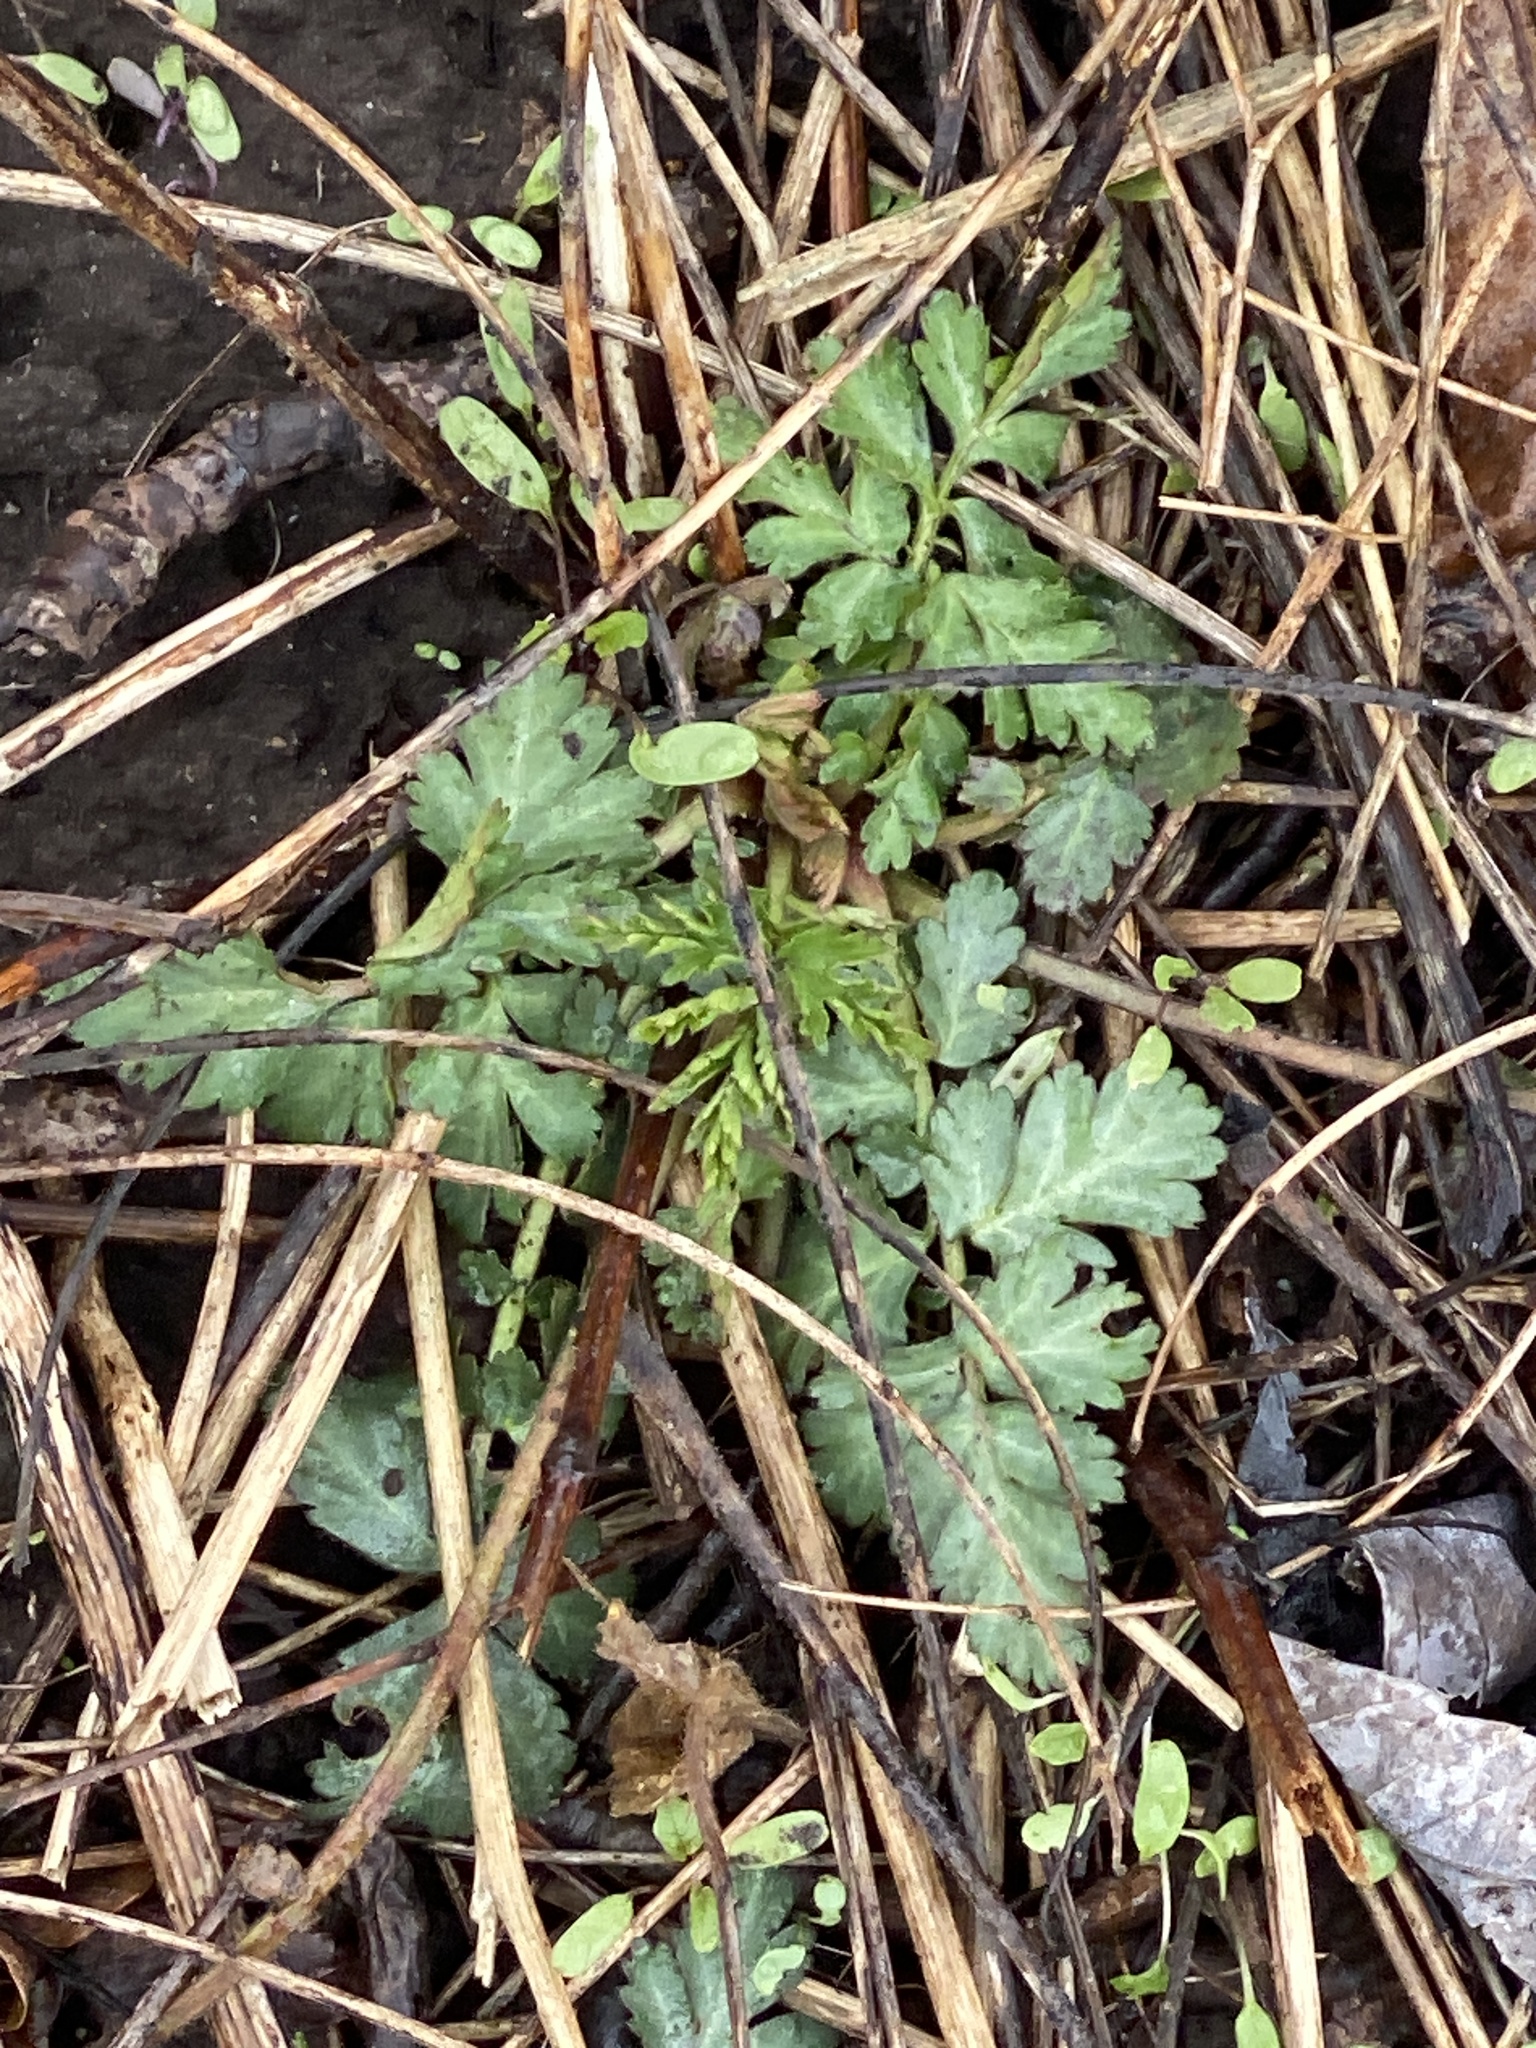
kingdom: Plantae
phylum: Tracheophyta
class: Magnoliopsida
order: Rosales
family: Rosaceae
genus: Geum
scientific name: Geum canadense
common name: White avens
